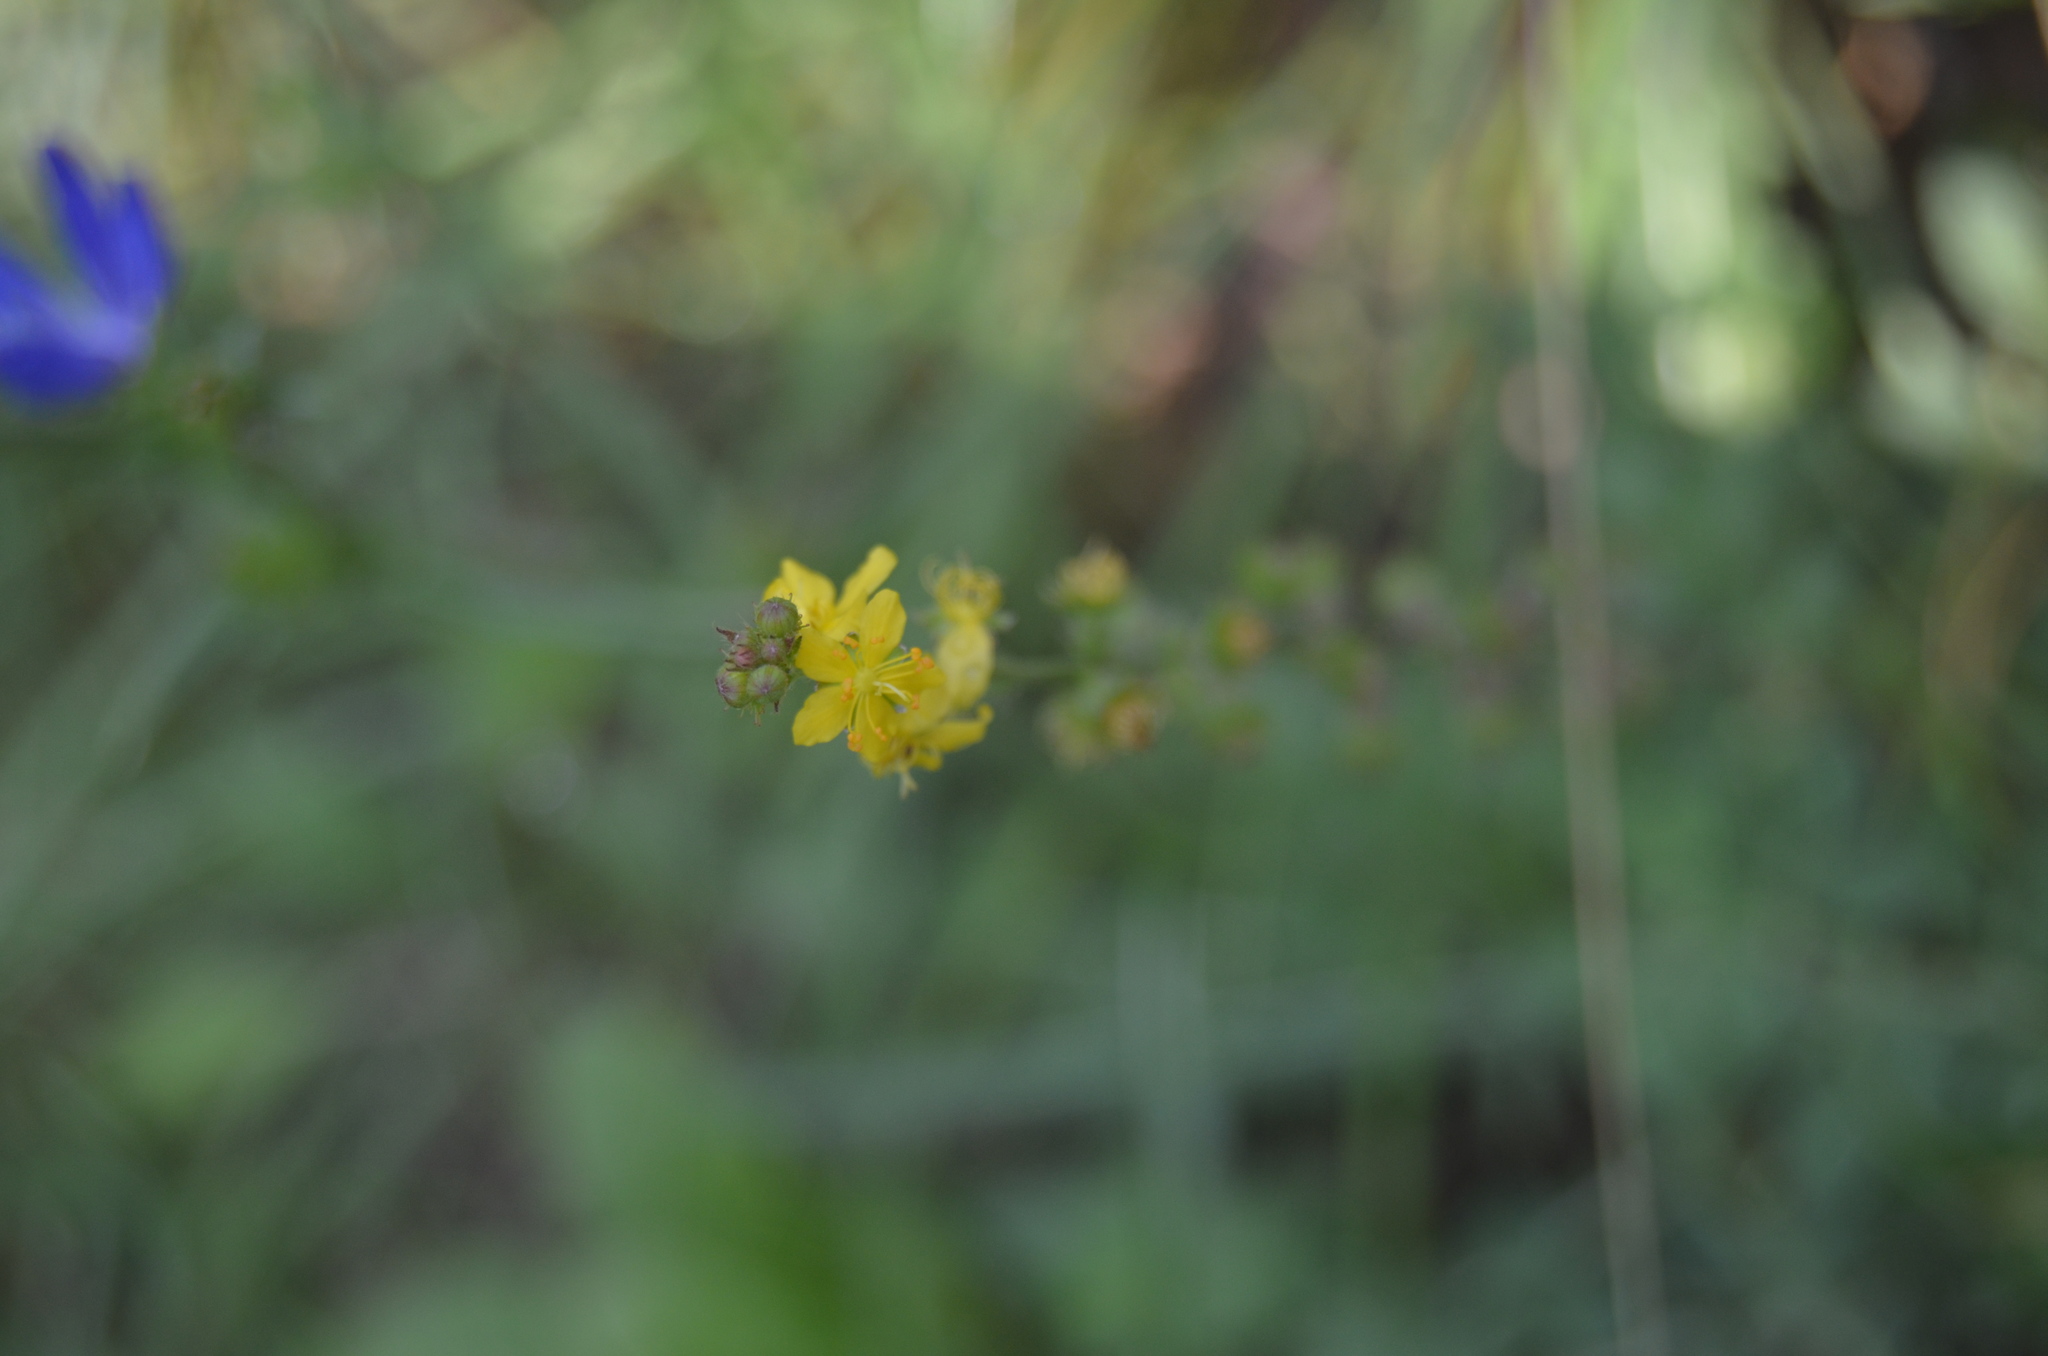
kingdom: Plantae
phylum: Tracheophyta
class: Magnoliopsida
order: Rosales
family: Rosaceae
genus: Agrimonia
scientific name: Agrimonia eupatoria
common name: Agrimony
